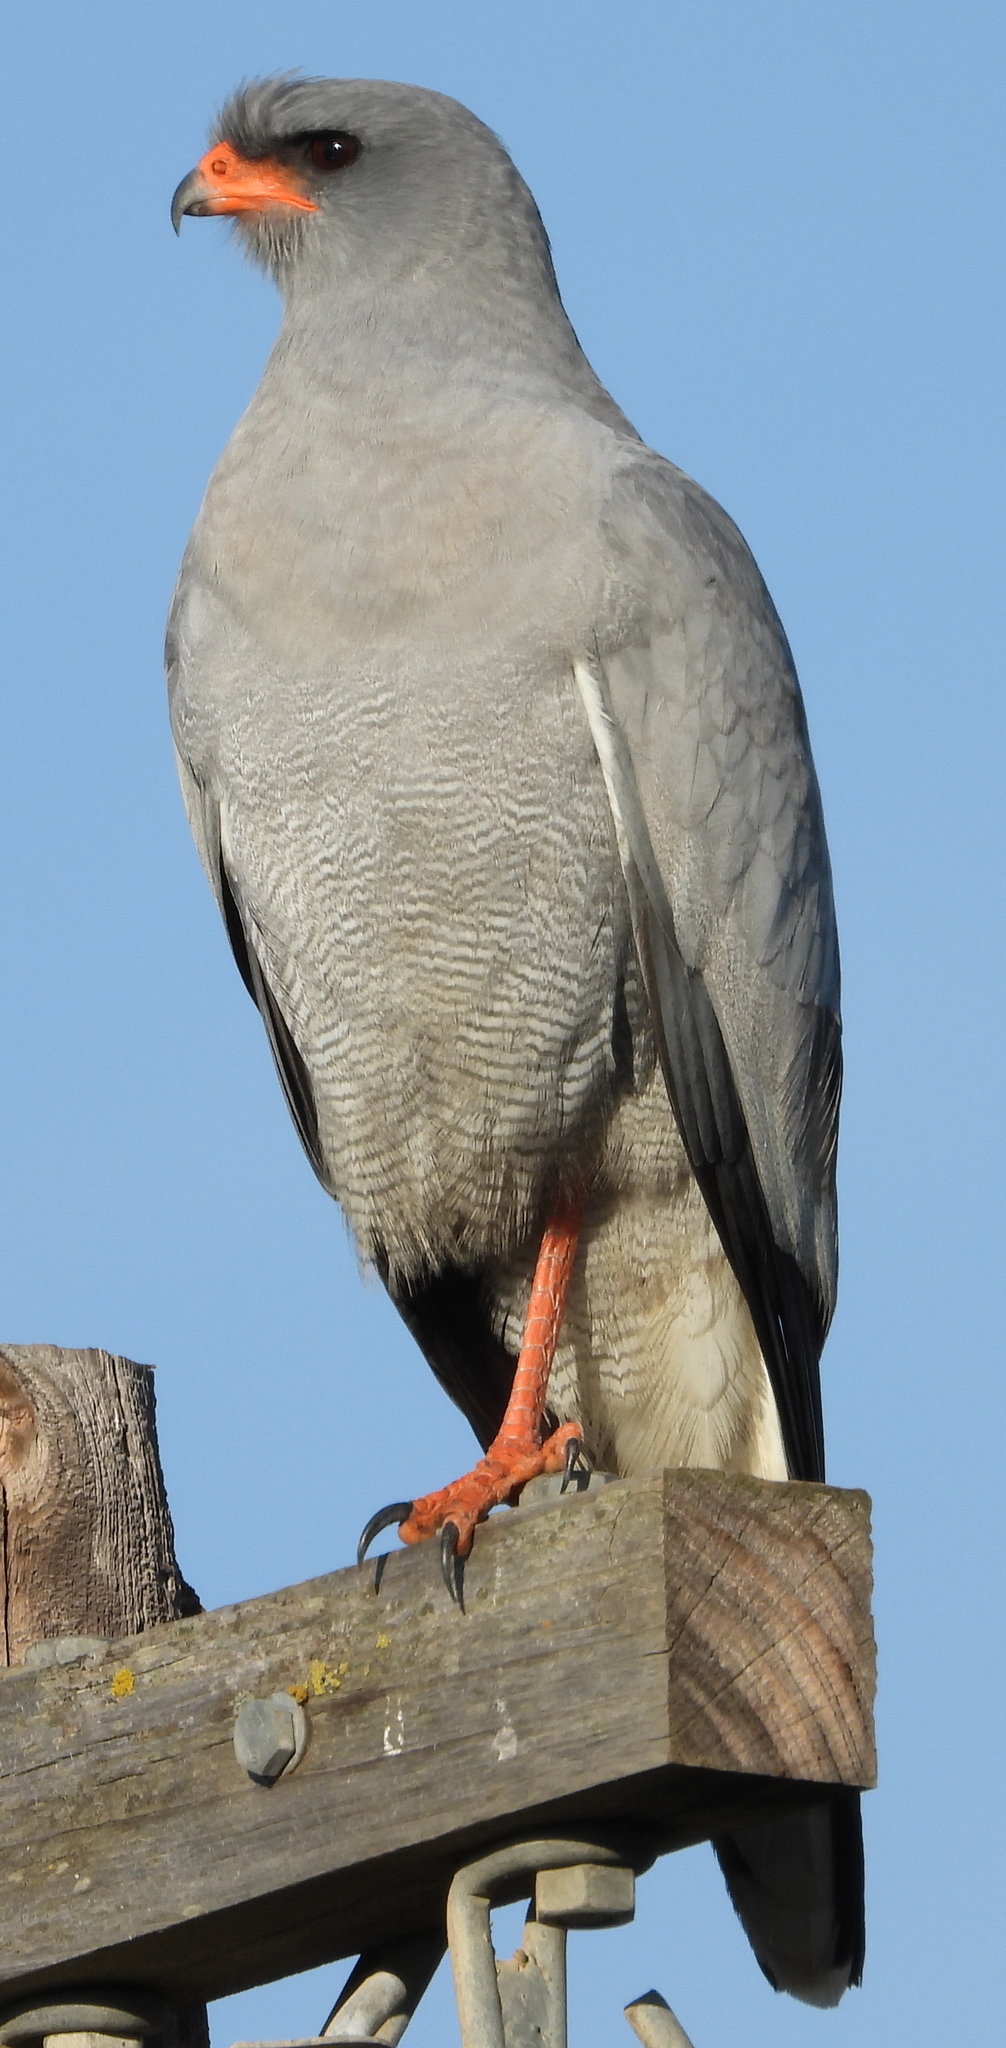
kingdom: Animalia
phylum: Chordata
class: Aves
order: Accipitriformes
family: Accipitridae
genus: Melierax
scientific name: Melierax canorus
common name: Pale chanting-goshawk
